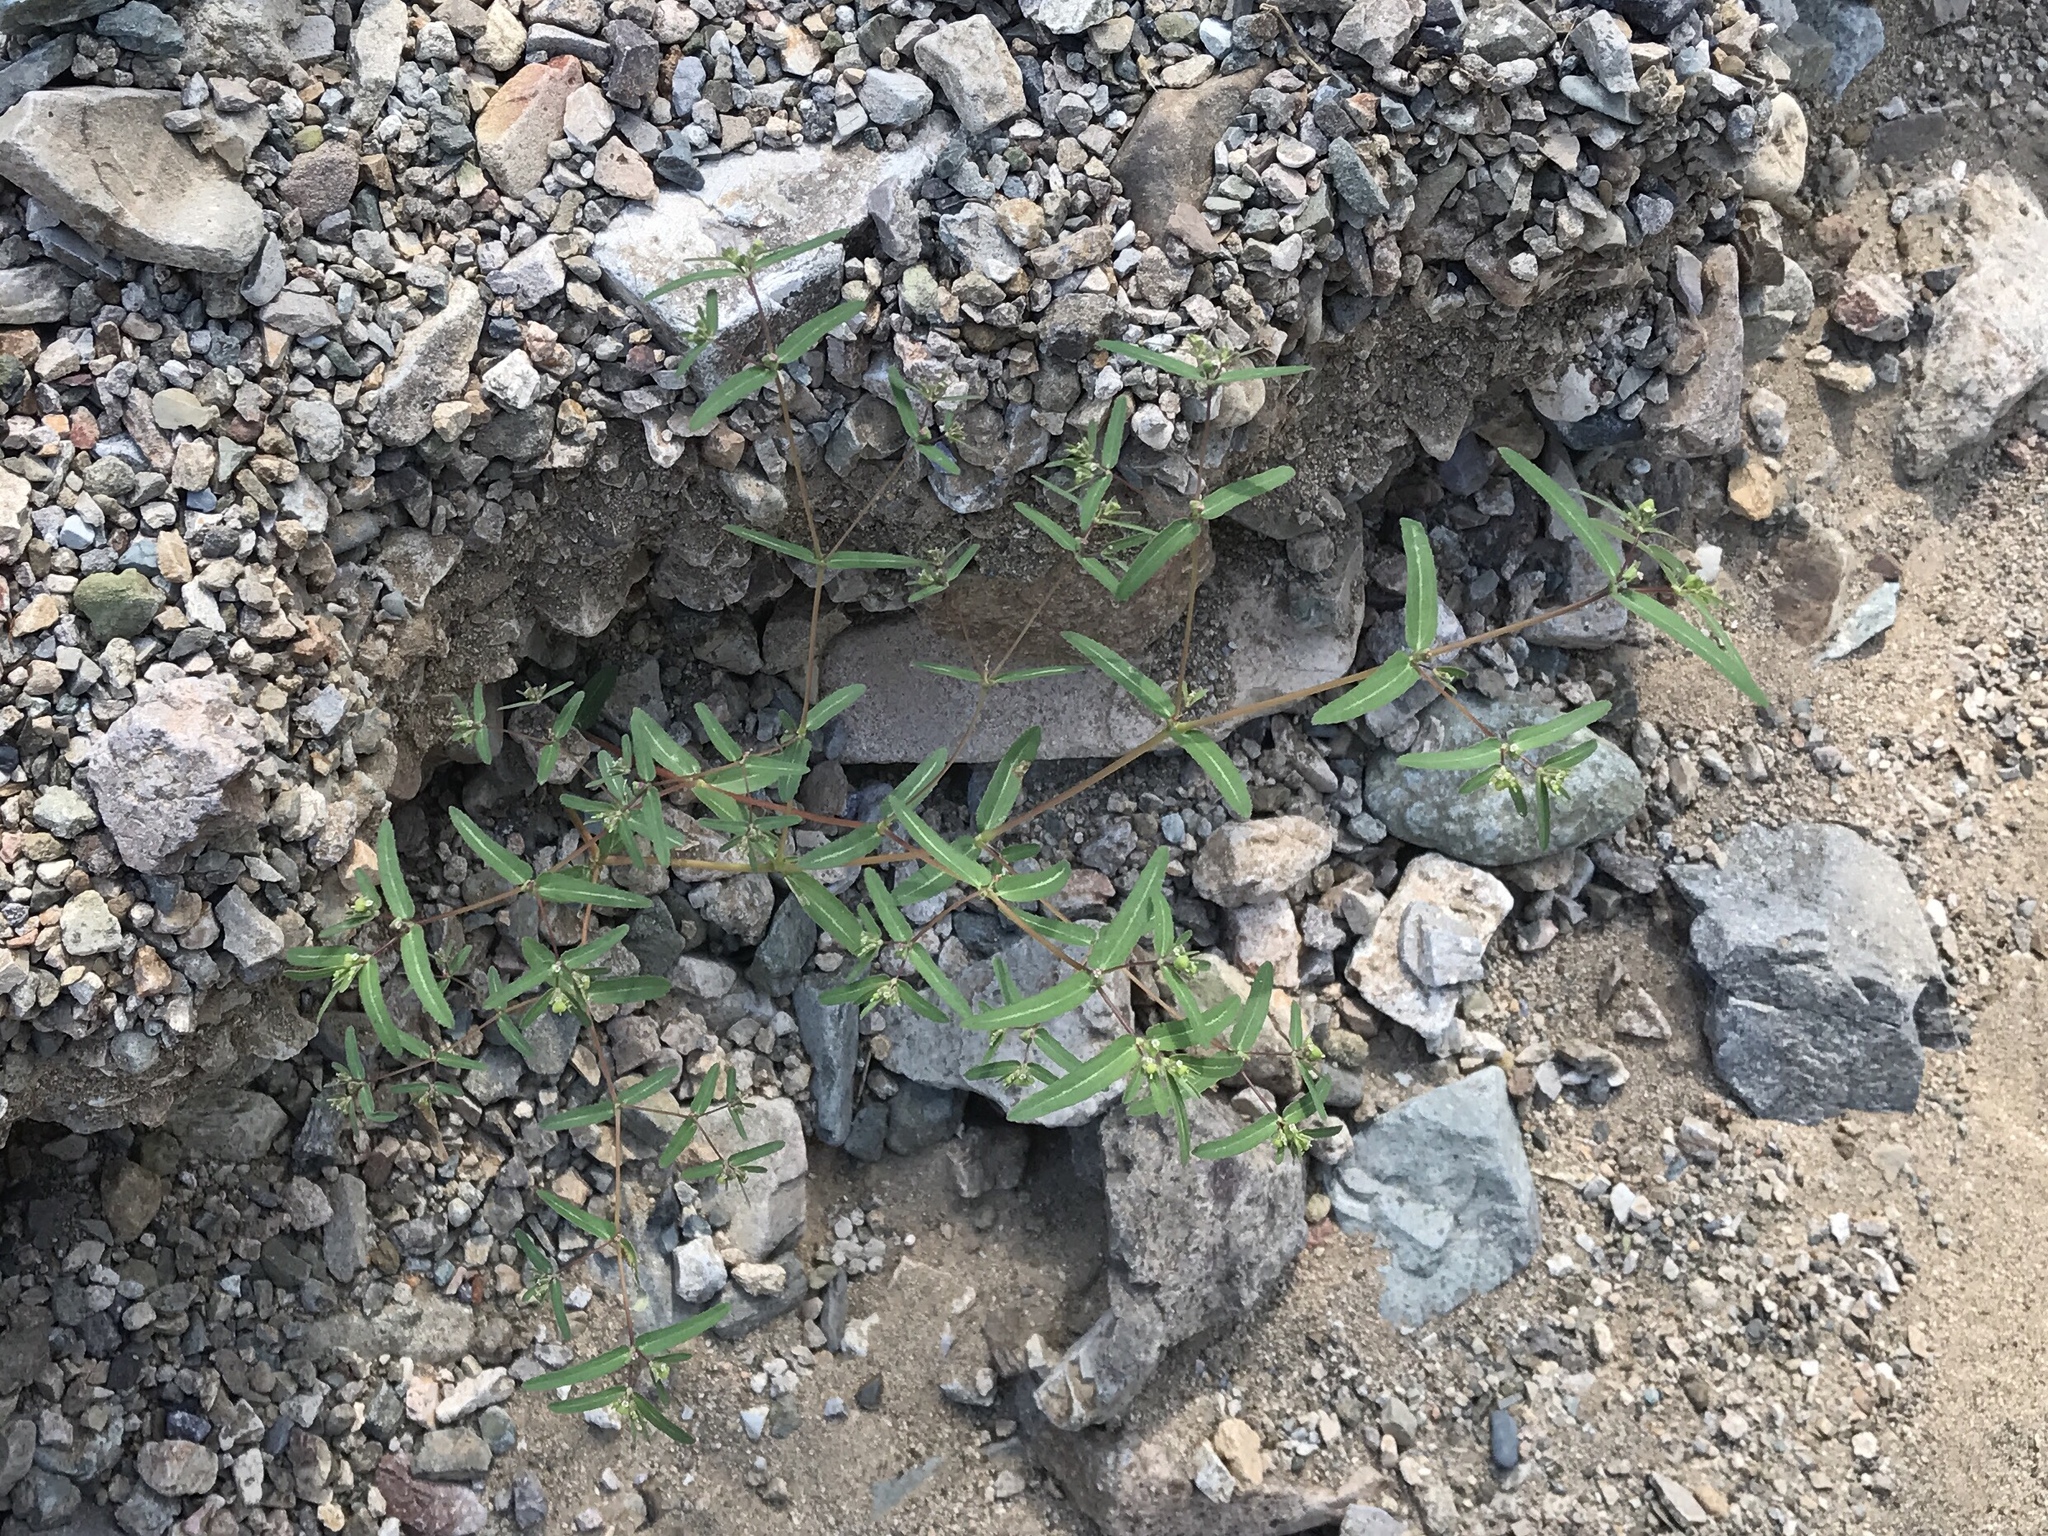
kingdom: Plantae
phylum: Tracheophyta
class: Magnoliopsida
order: Malpighiales
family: Euphorbiaceae
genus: Euphorbia
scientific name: Euphorbia hyssopifolia
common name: Hyssopleaf sandmat
